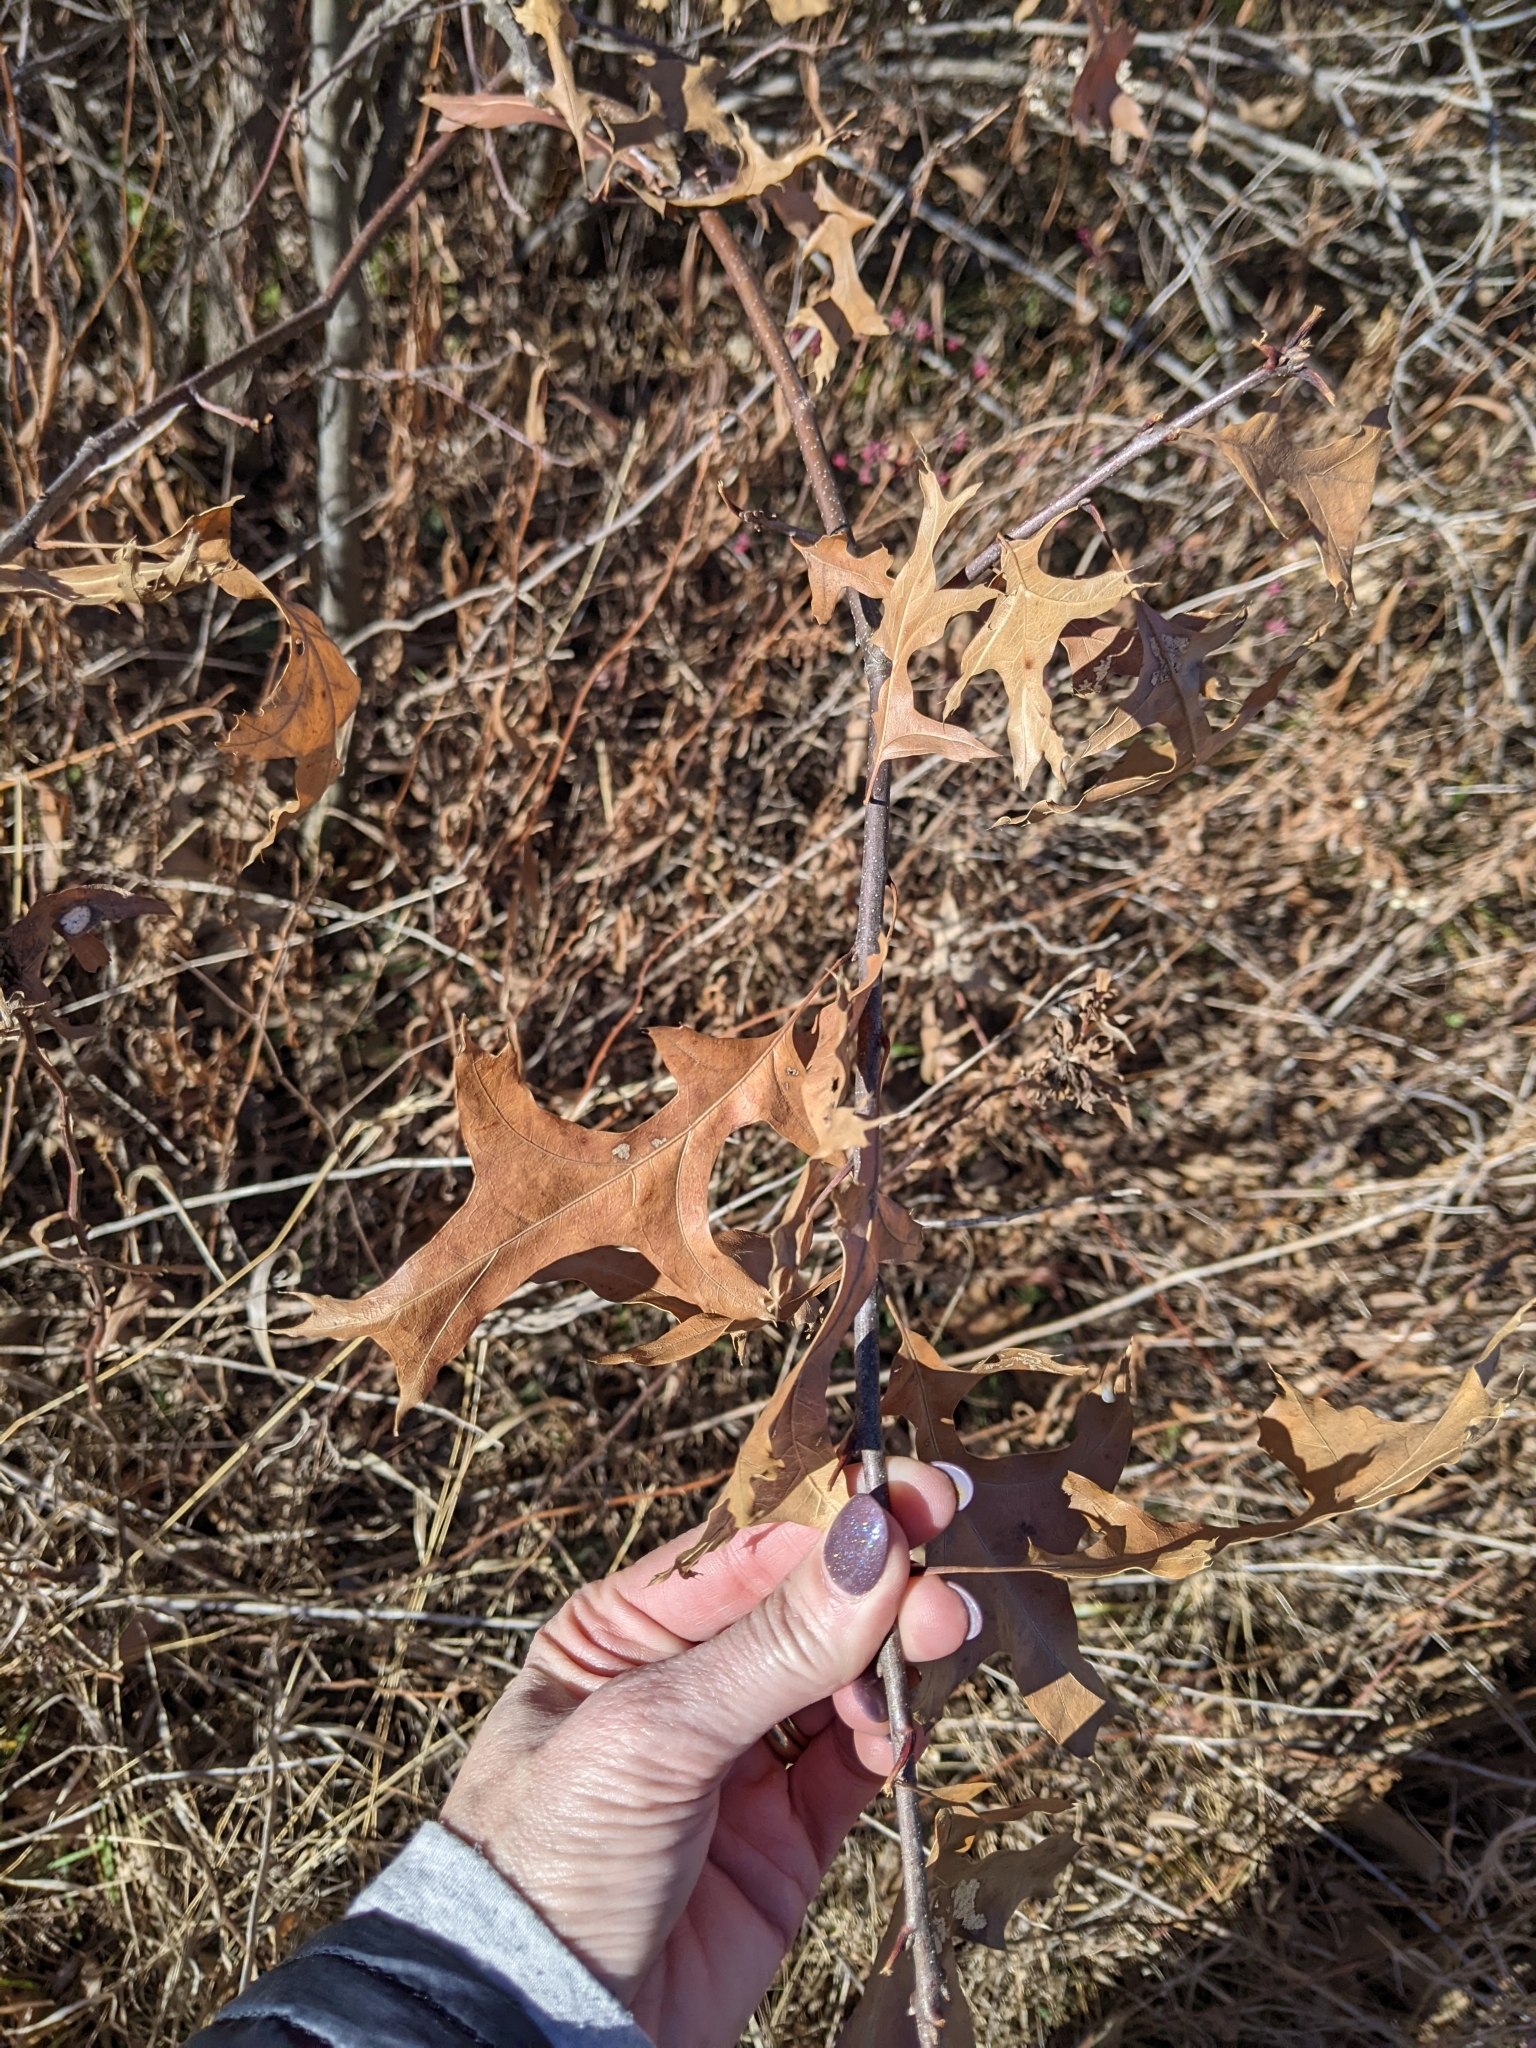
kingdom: Plantae
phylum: Tracheophyta
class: Magnoliopsida
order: Fagales
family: Fagaceae
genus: Quercus
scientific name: Quercus palustris
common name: Pin oak
